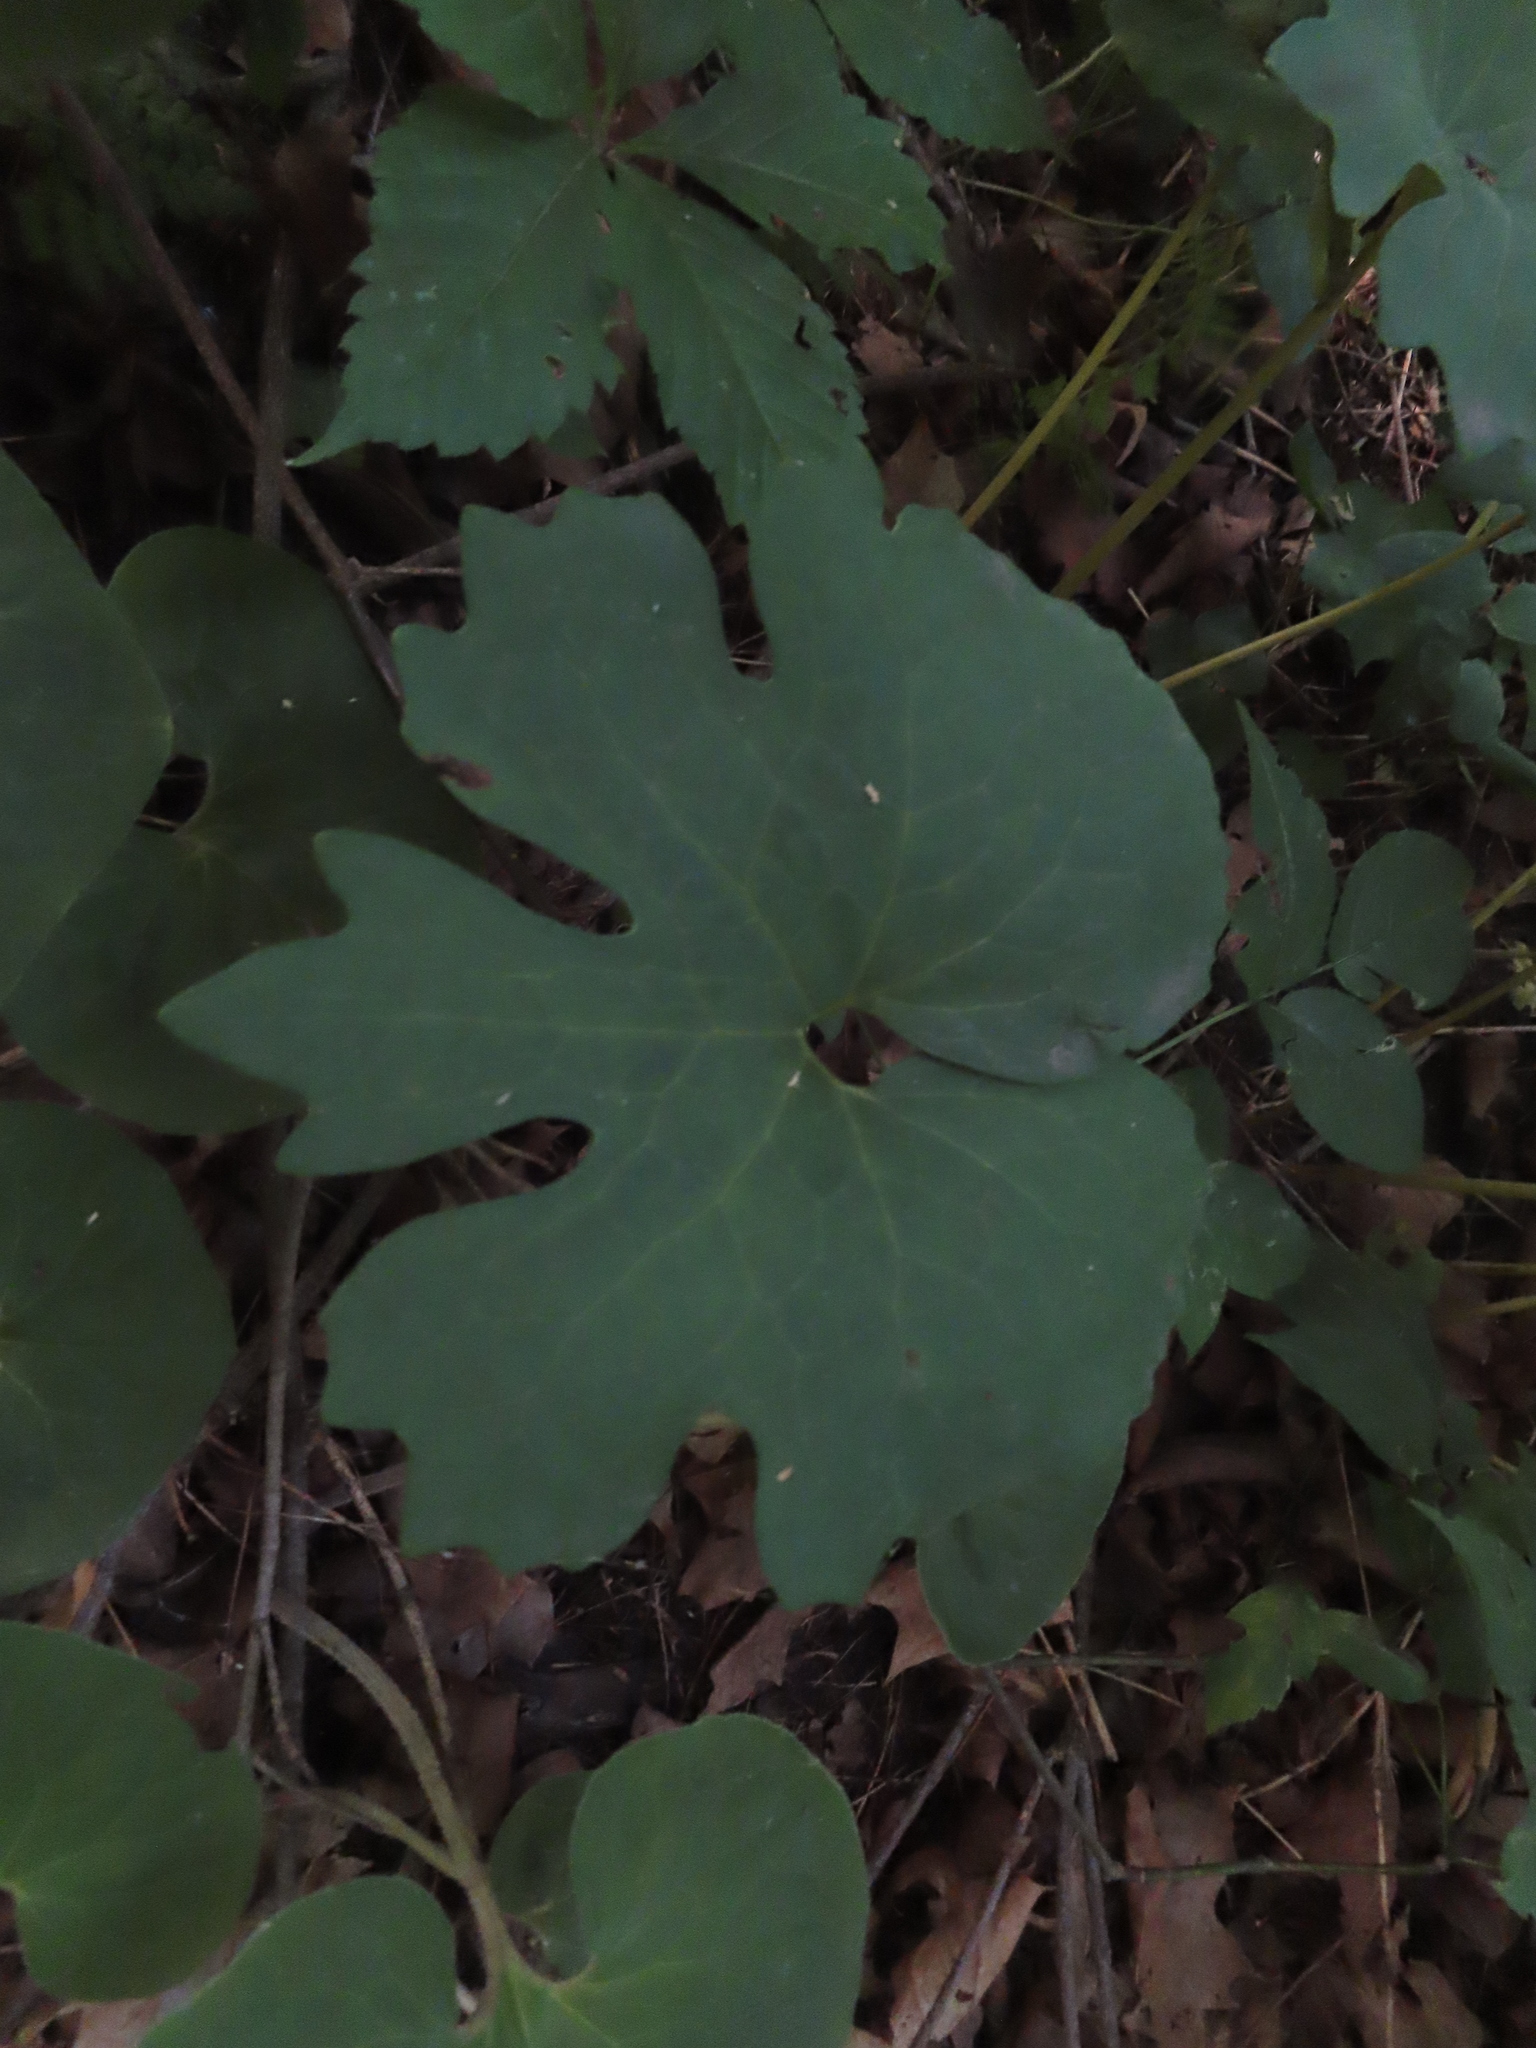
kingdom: Plantae
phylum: Tracheophyta
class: Magnoliopsida
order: Ranunculales
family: Papaveraceae
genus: Sanguinaria
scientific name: Sanguinaria canadensis
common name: Bloodroot
